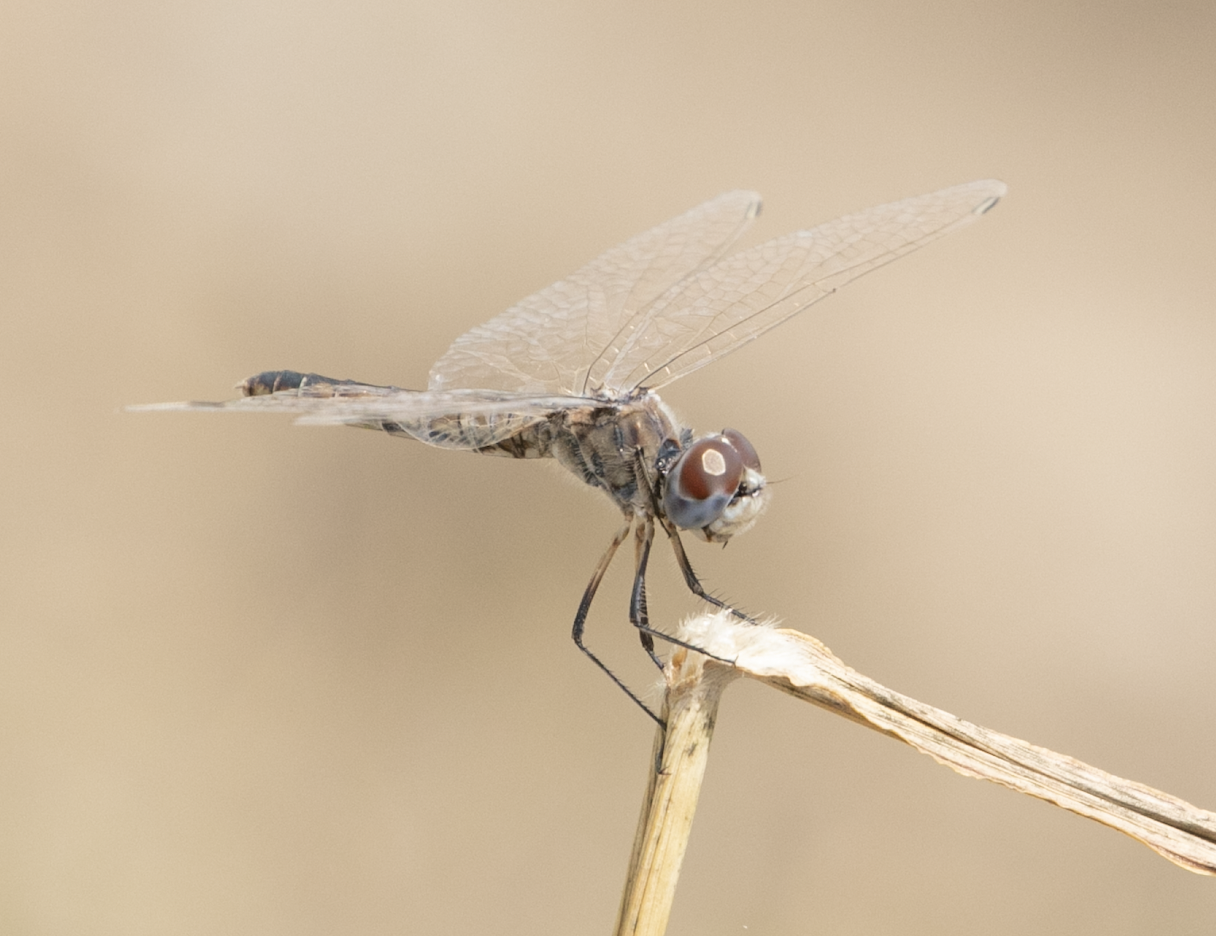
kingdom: Animalia
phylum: Arthropoda
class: Insecta
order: Odonata
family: Libellulidae
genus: Selysiothemis
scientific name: Selysiothemis nigra
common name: Black pennant
